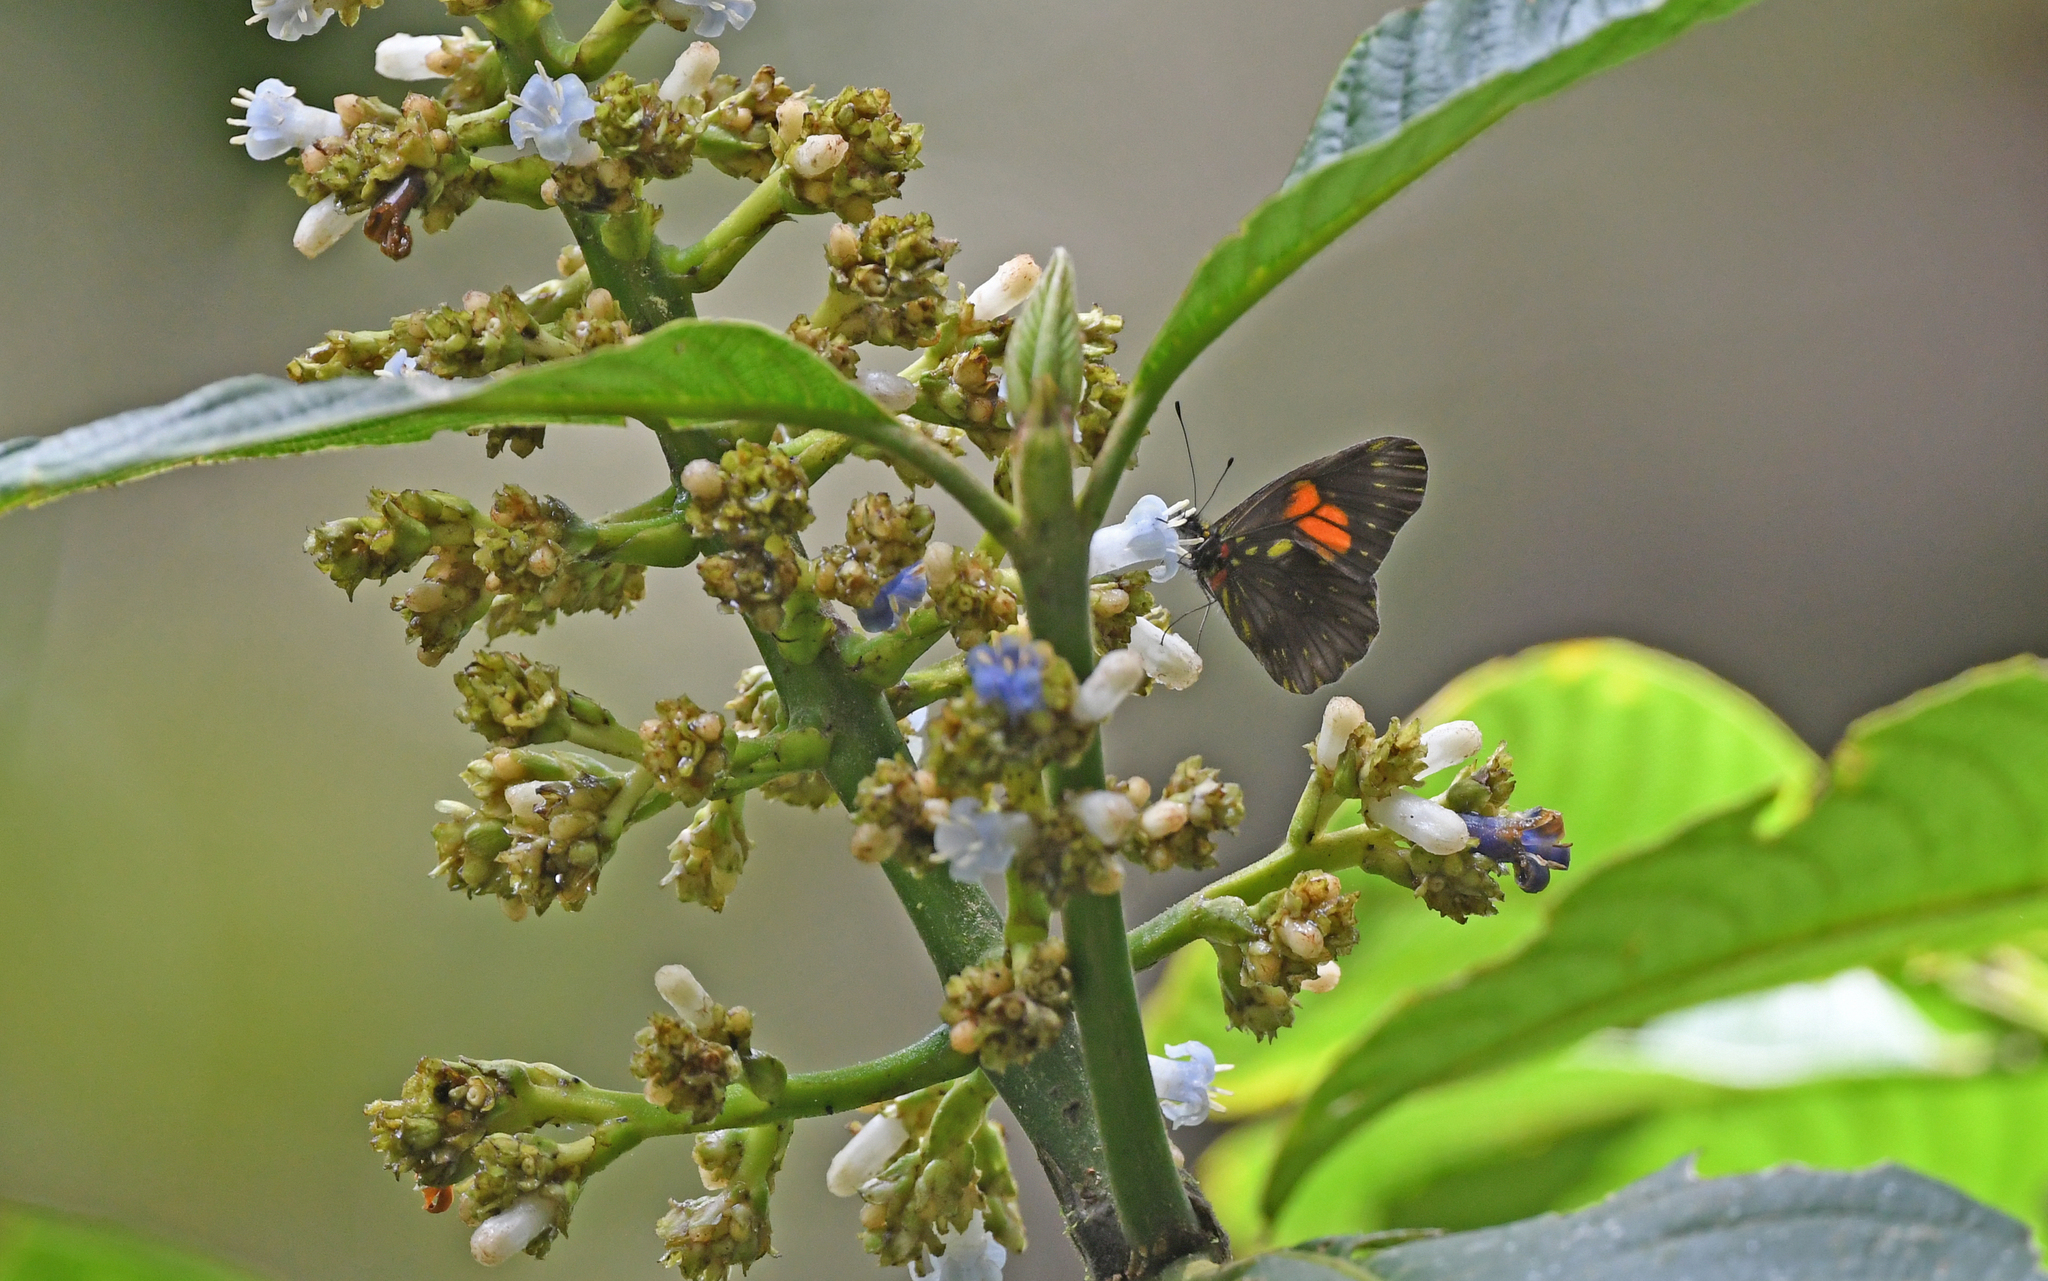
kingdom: Animalia
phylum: Arthropoda
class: Insecta
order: Lepidoptera
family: Pieridae
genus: Catasticta
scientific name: Catasticta ctemene
